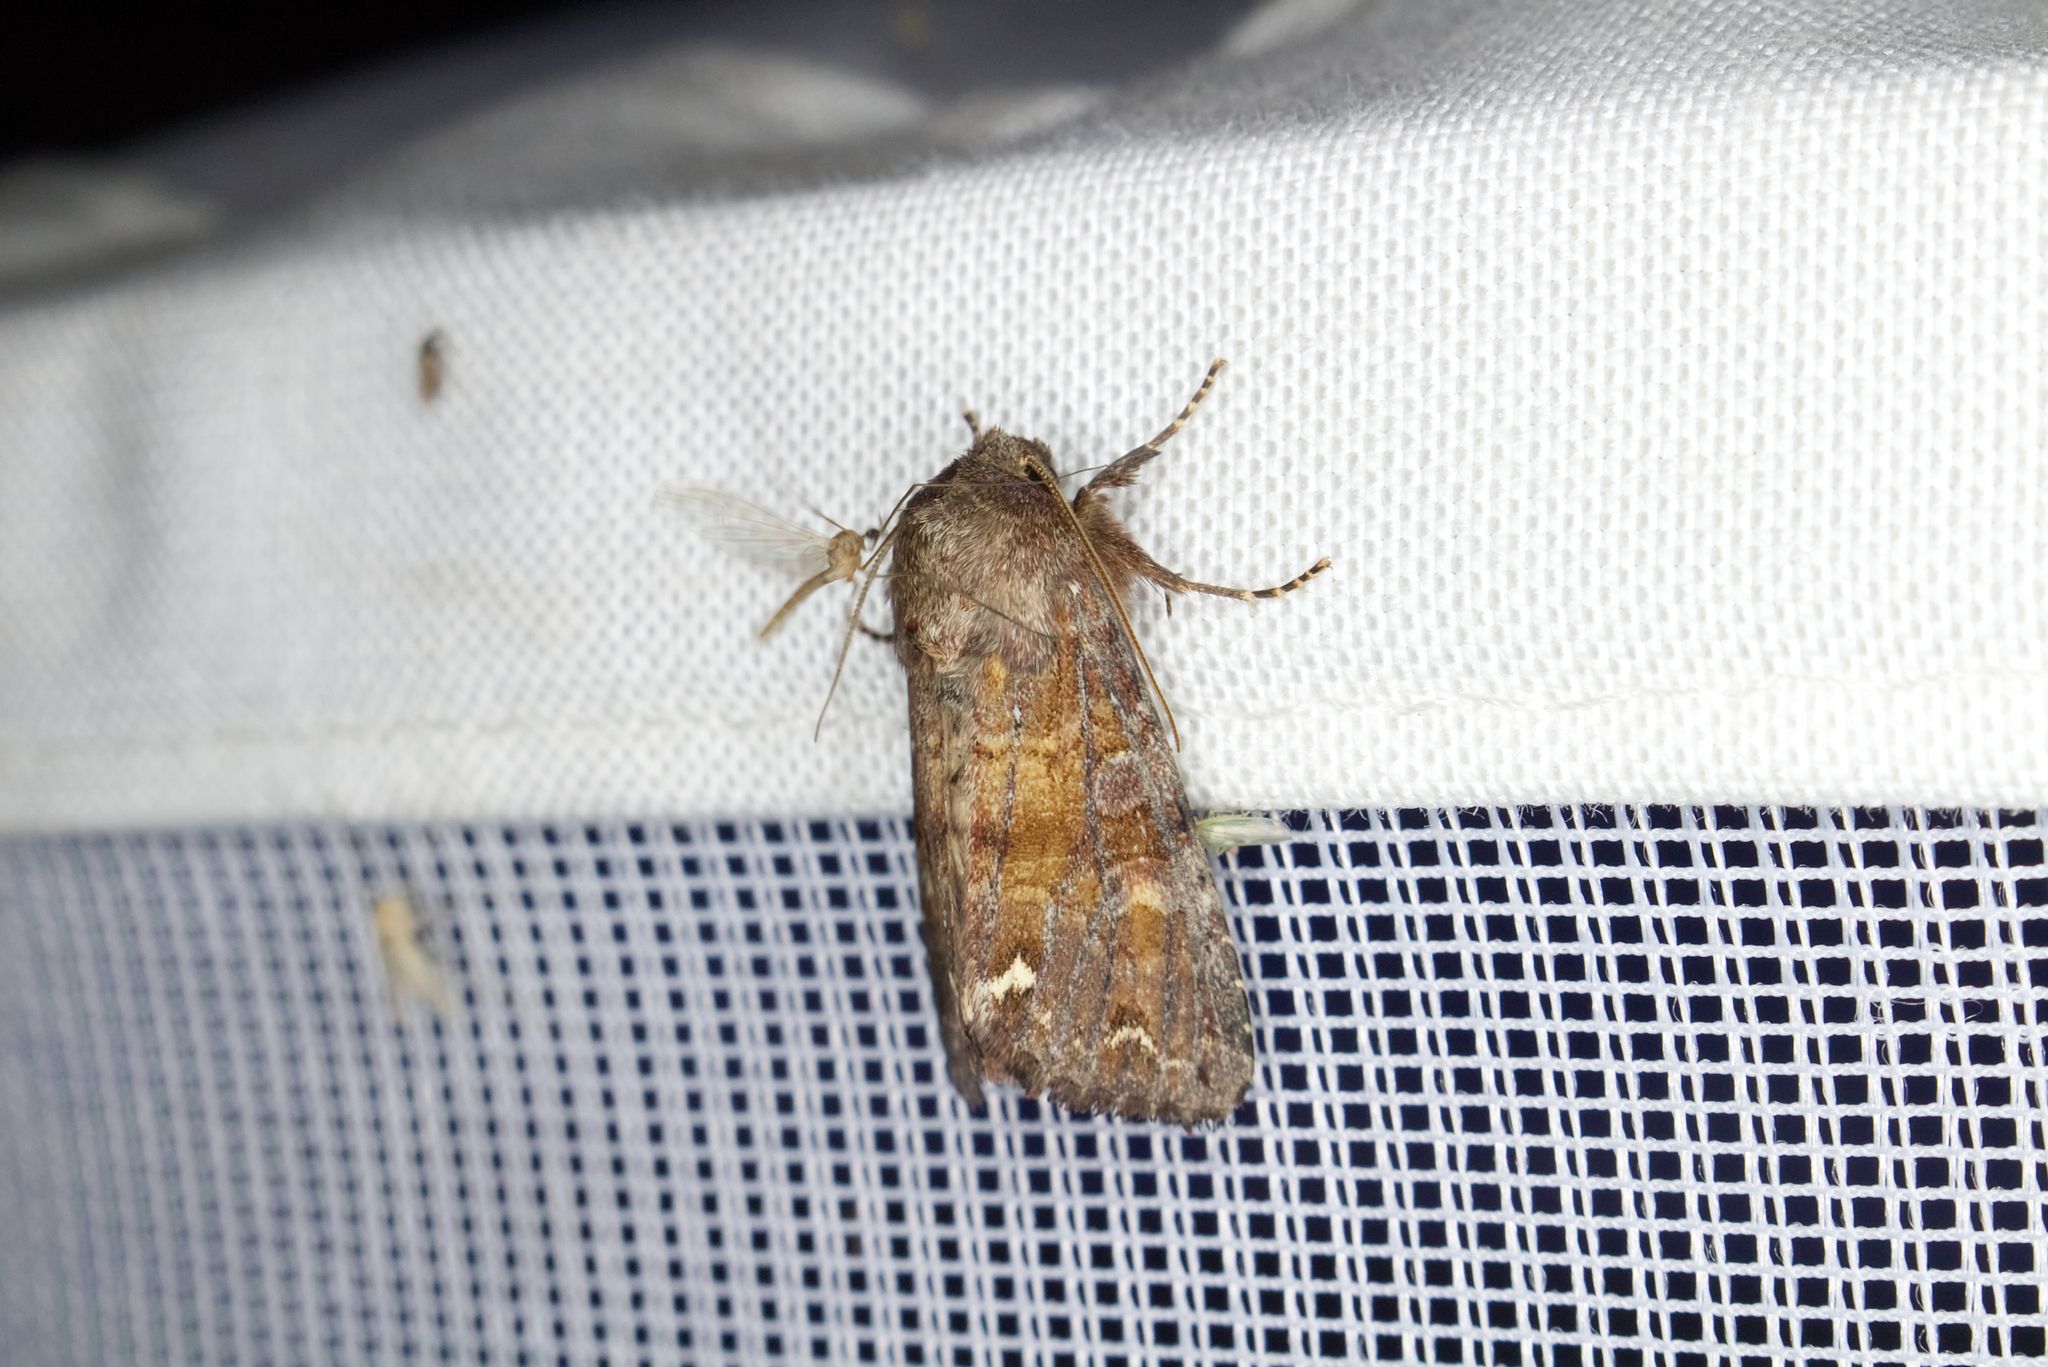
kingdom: Animalia
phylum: Arthropoda
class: Insecta
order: Lepidoptera
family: Noctuidae
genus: Ceramica
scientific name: Ceramica pisi
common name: Broom moth
